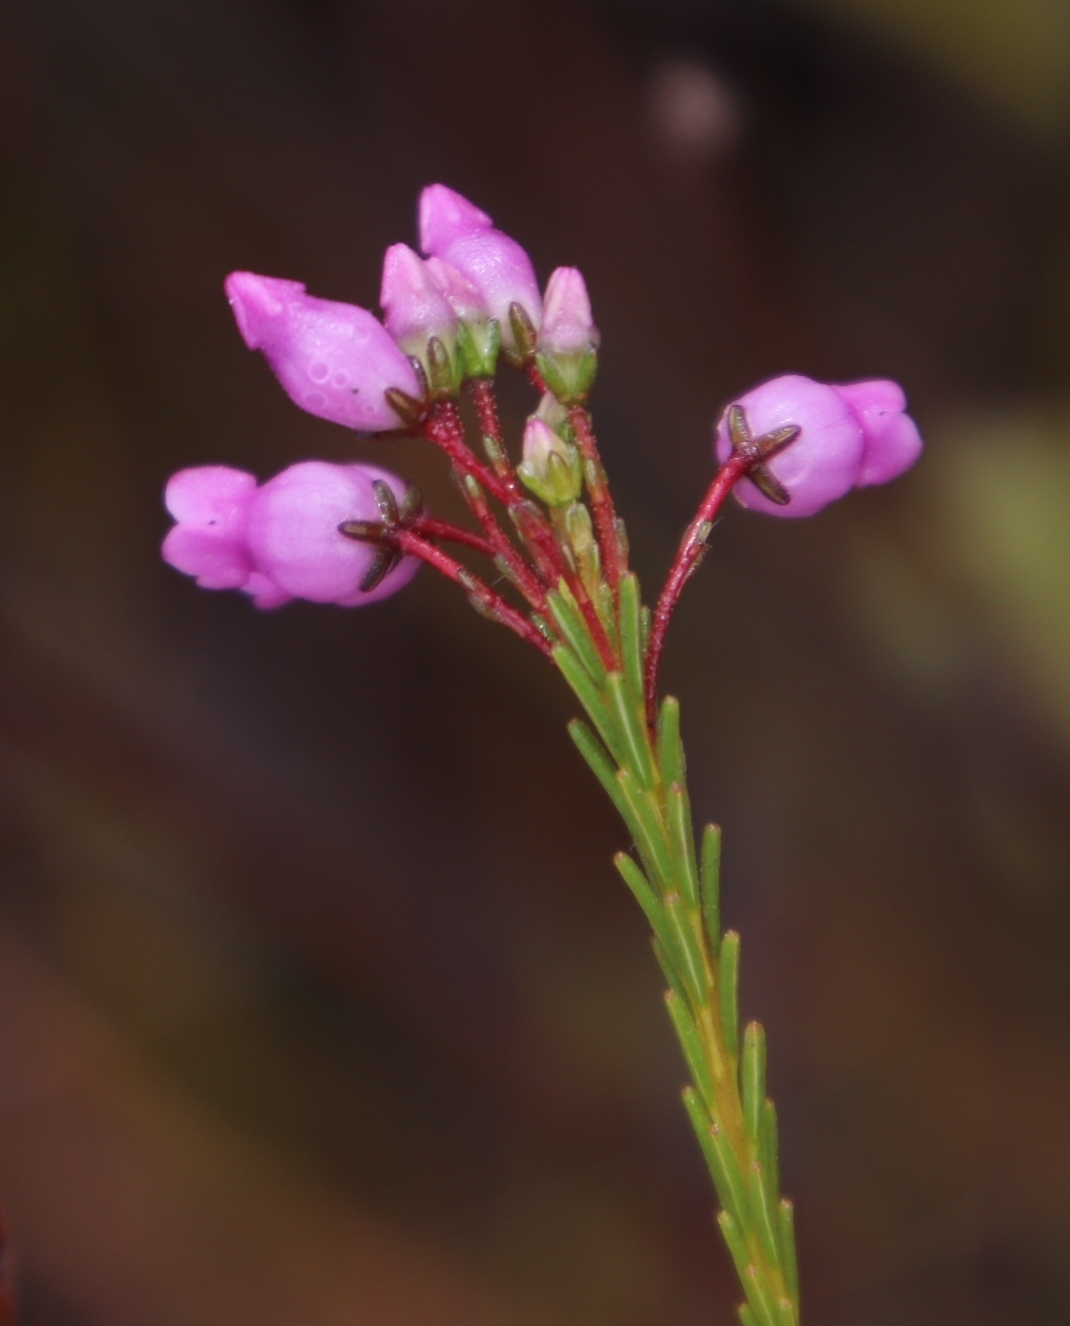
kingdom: Plantae
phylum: Tracheophyta
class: Magnoliopsida
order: Ericales
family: Ericaceae
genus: Erica
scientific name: Erica obliqua
